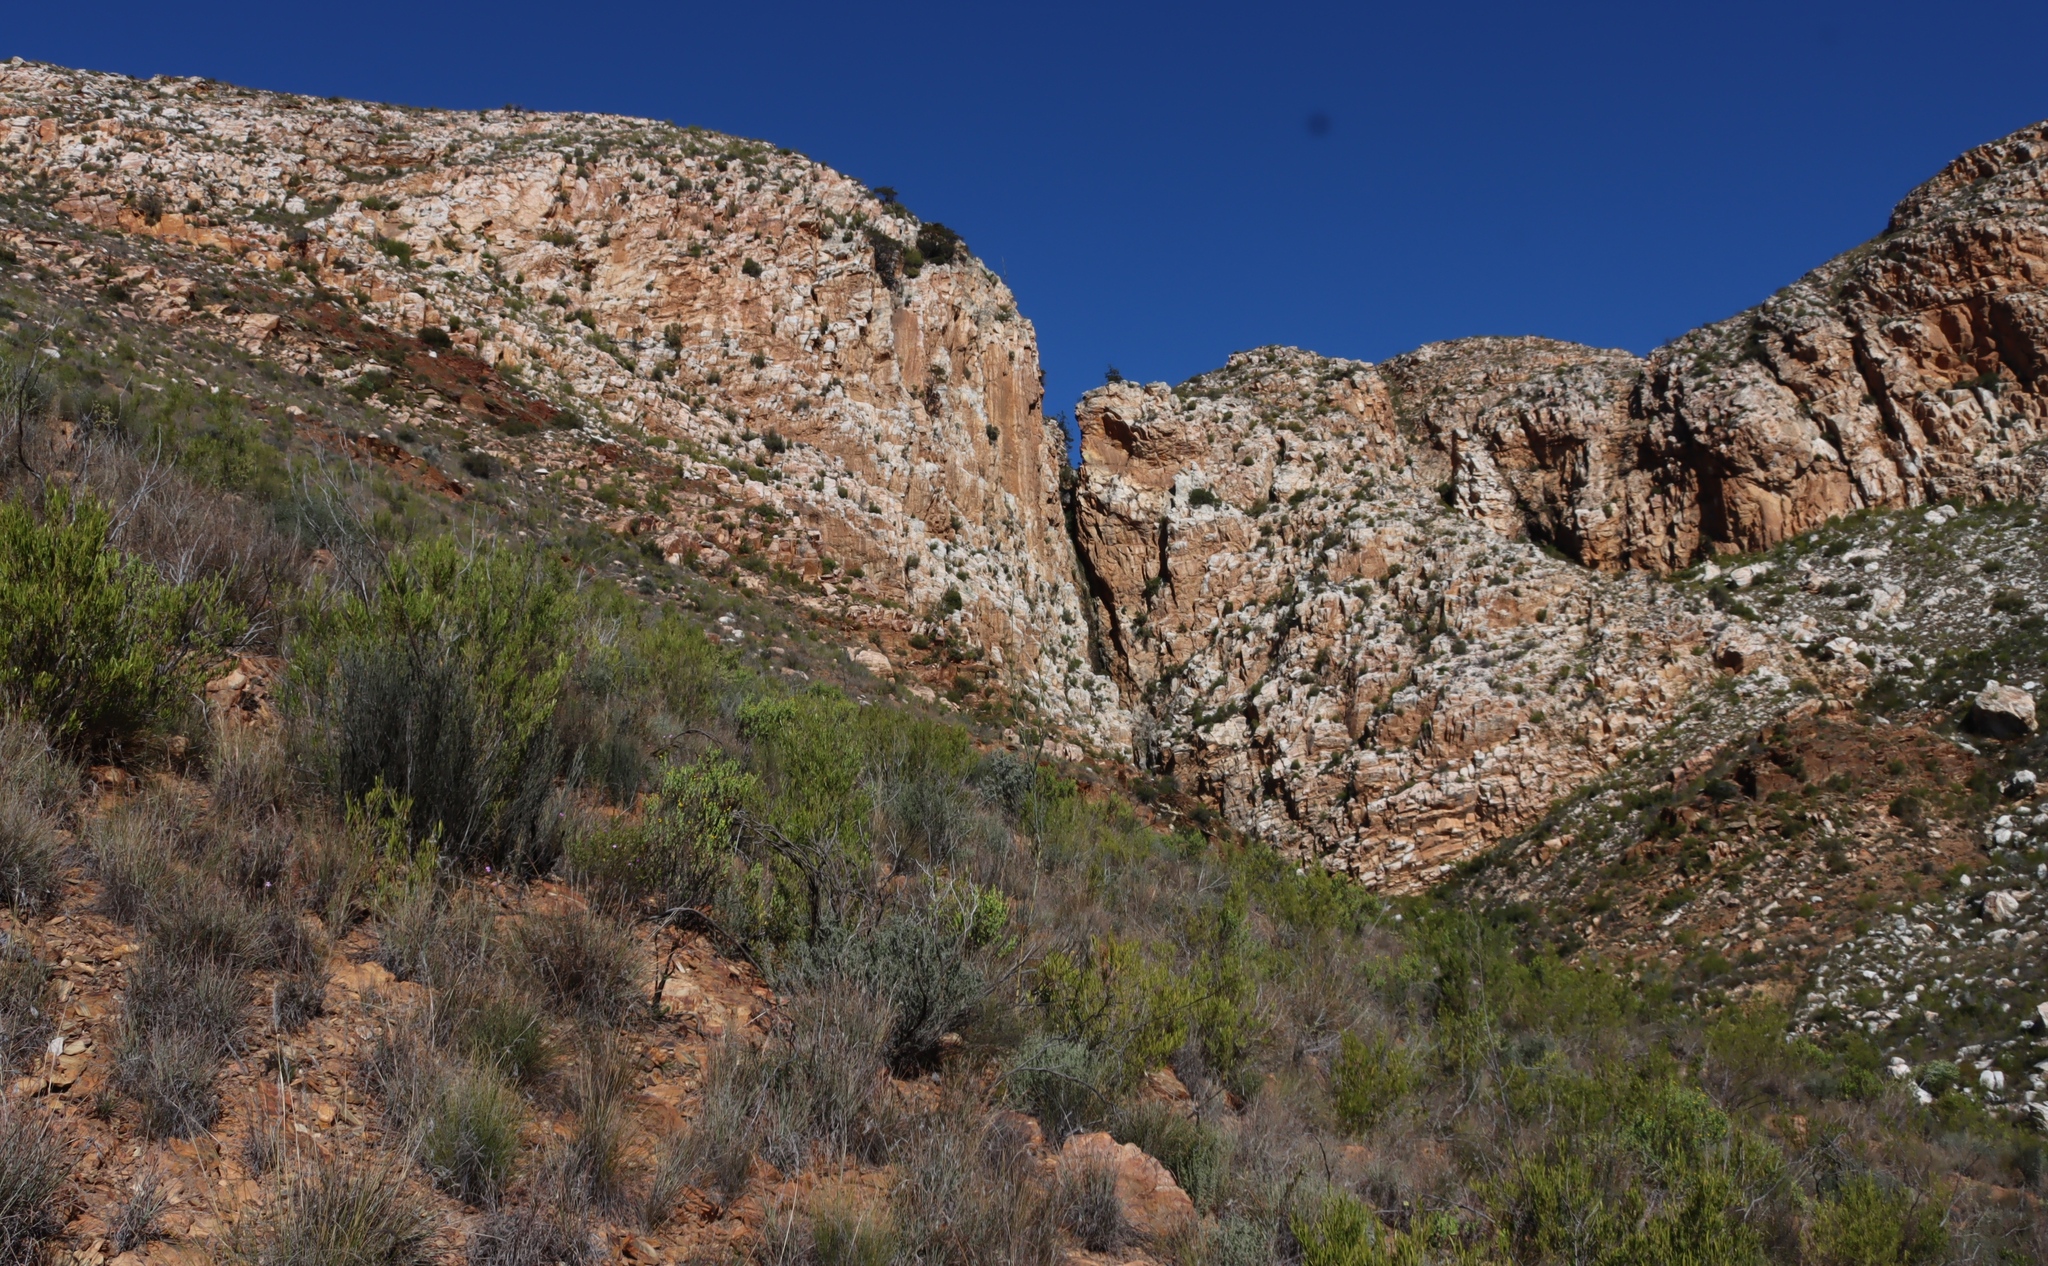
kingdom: Plantae
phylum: Tracheophyta
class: Pinopsida
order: Pinales
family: Cupressaceae
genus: Widdringtonia
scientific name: Widdringtonia schwarzii
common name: Baviaans cedar
